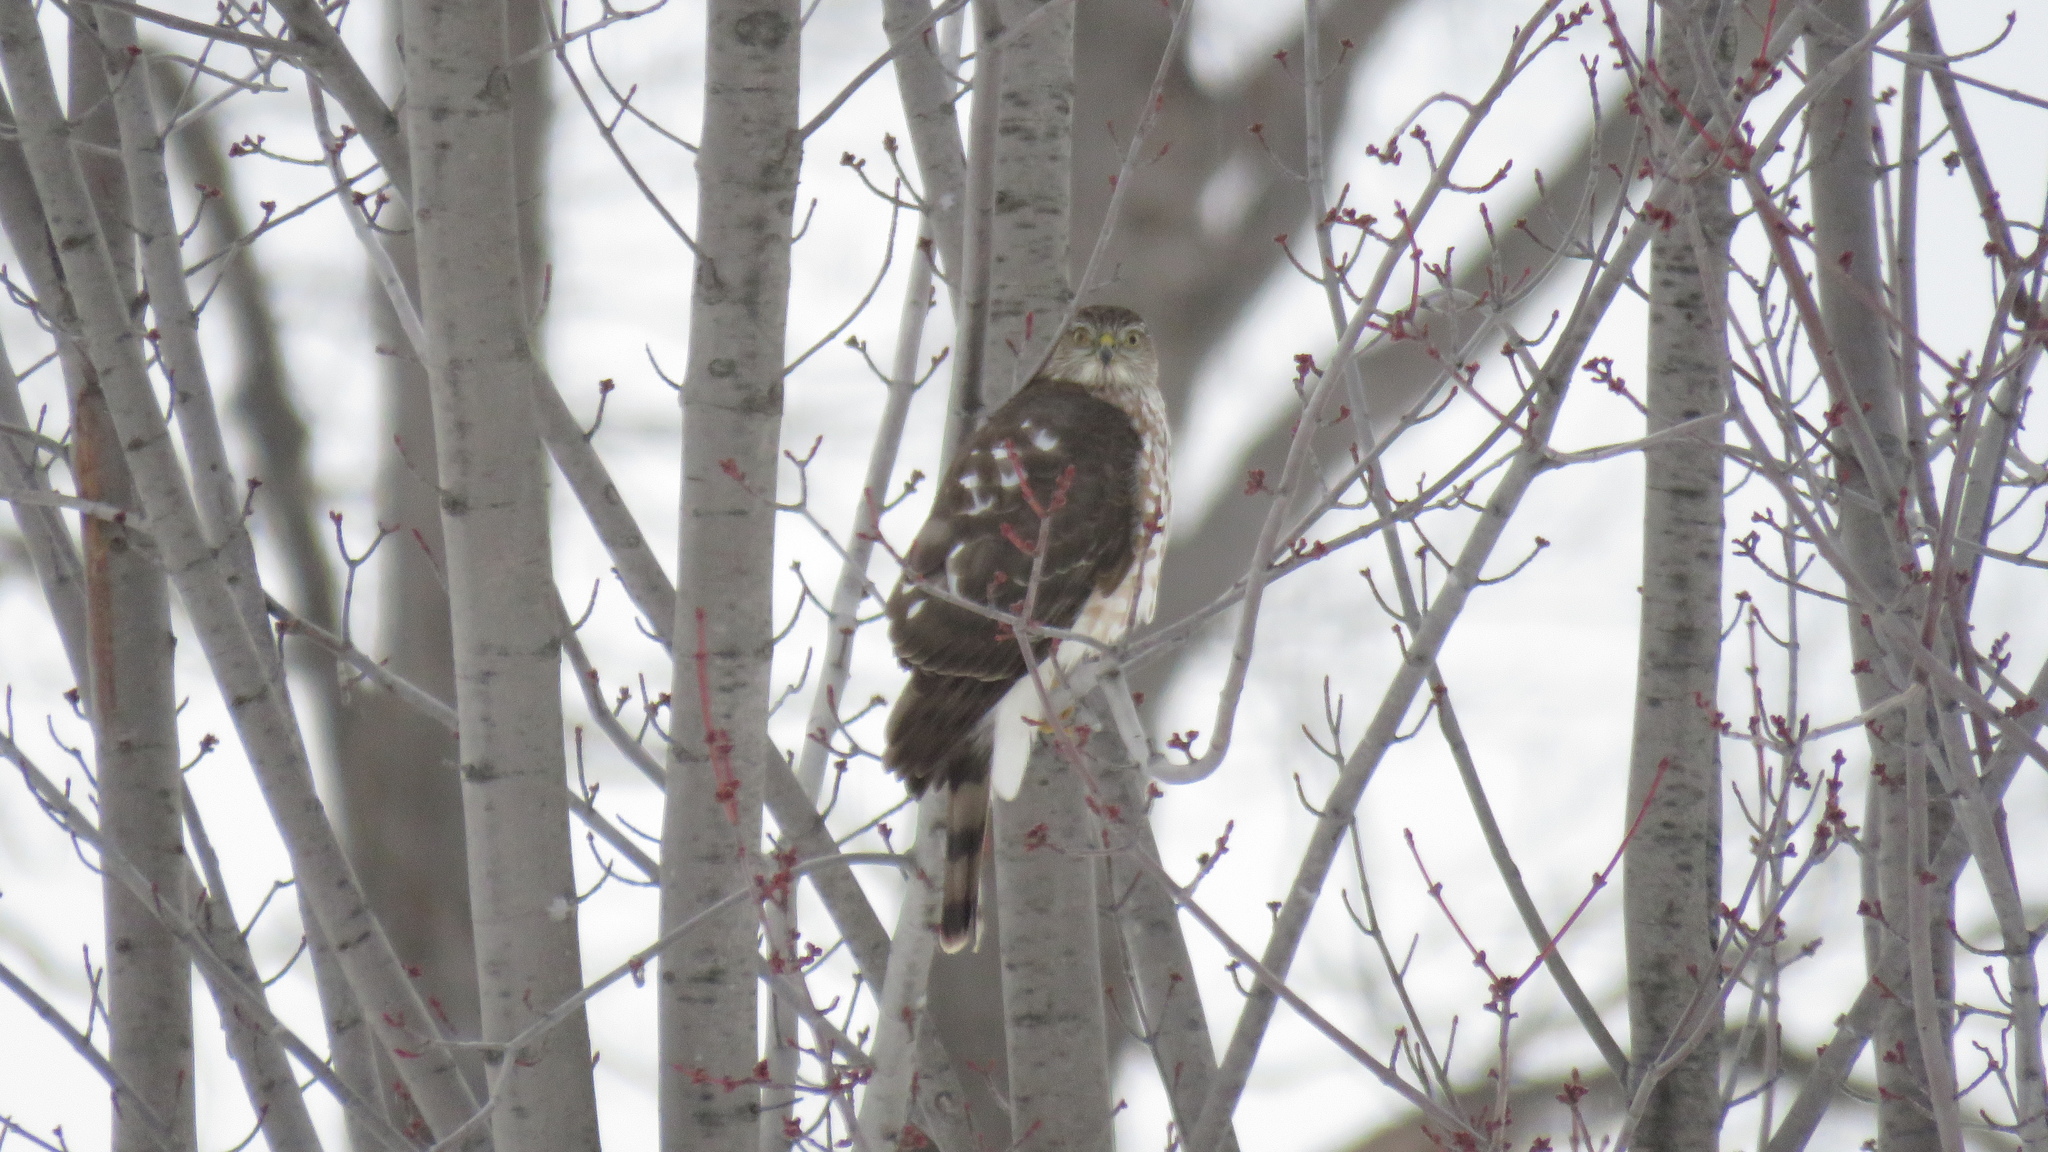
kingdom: Animalia
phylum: Chordata
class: Aves
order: Accipitriformes
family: Accipitridae
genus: Accipiter
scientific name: Accipiter striatus
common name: Sharp-shinned hawk
